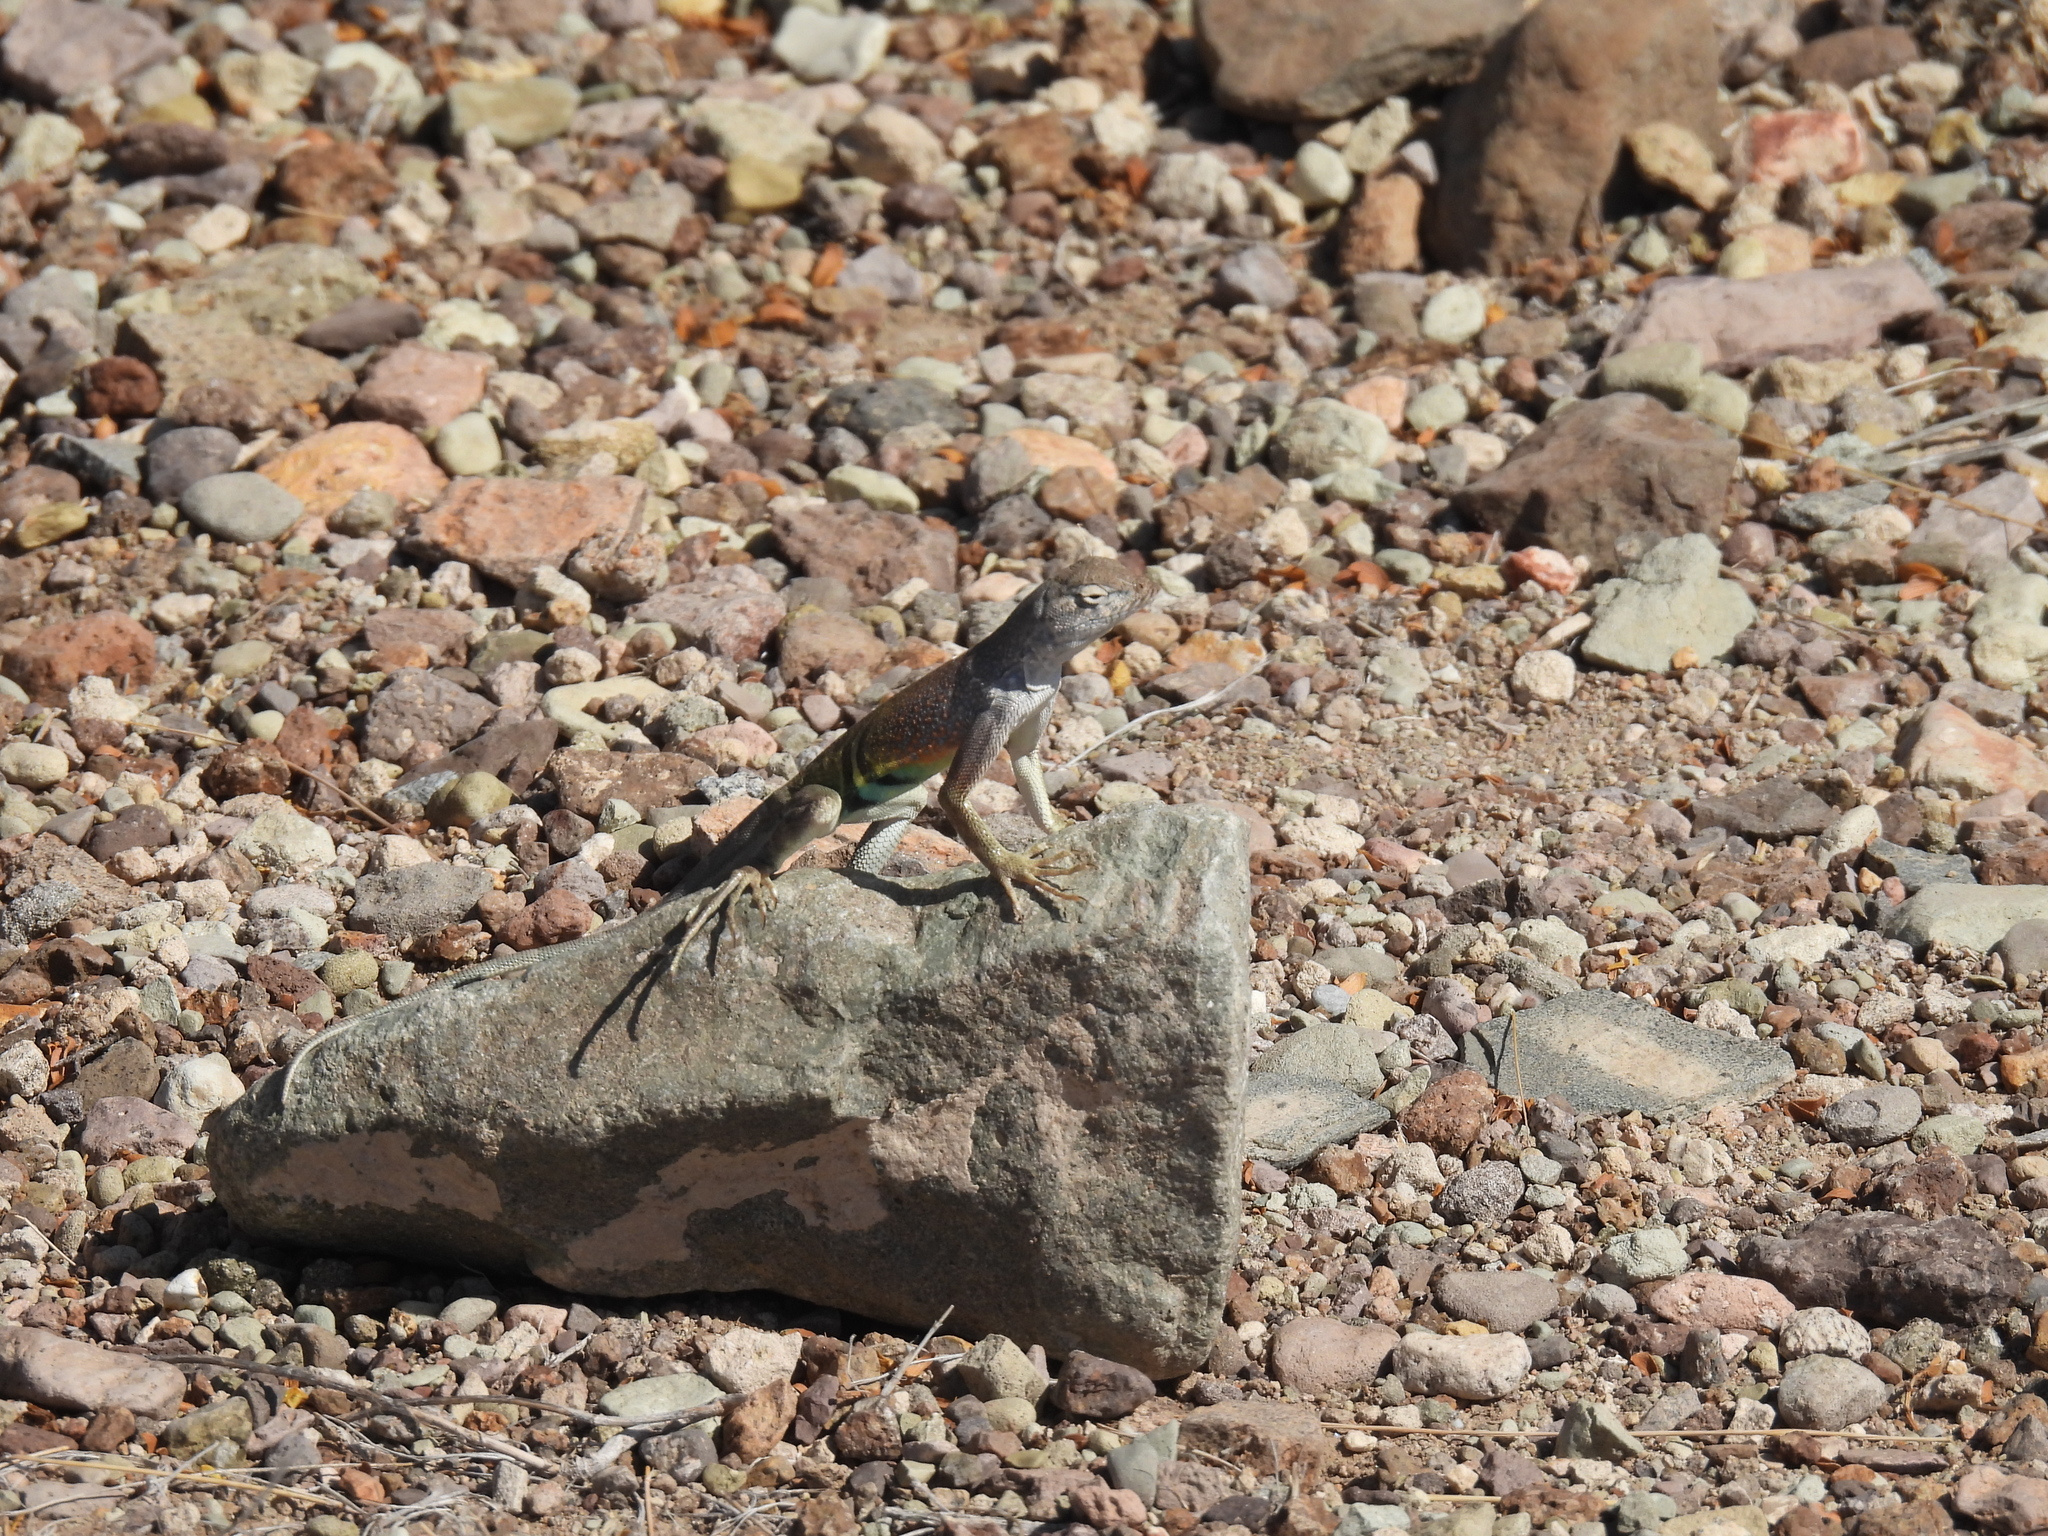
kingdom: Animalia
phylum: Chordata
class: Squamata
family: Phrynosomatidae
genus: Cophosaurus
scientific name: Cophosaurus texanus
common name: Greater earless lizard
